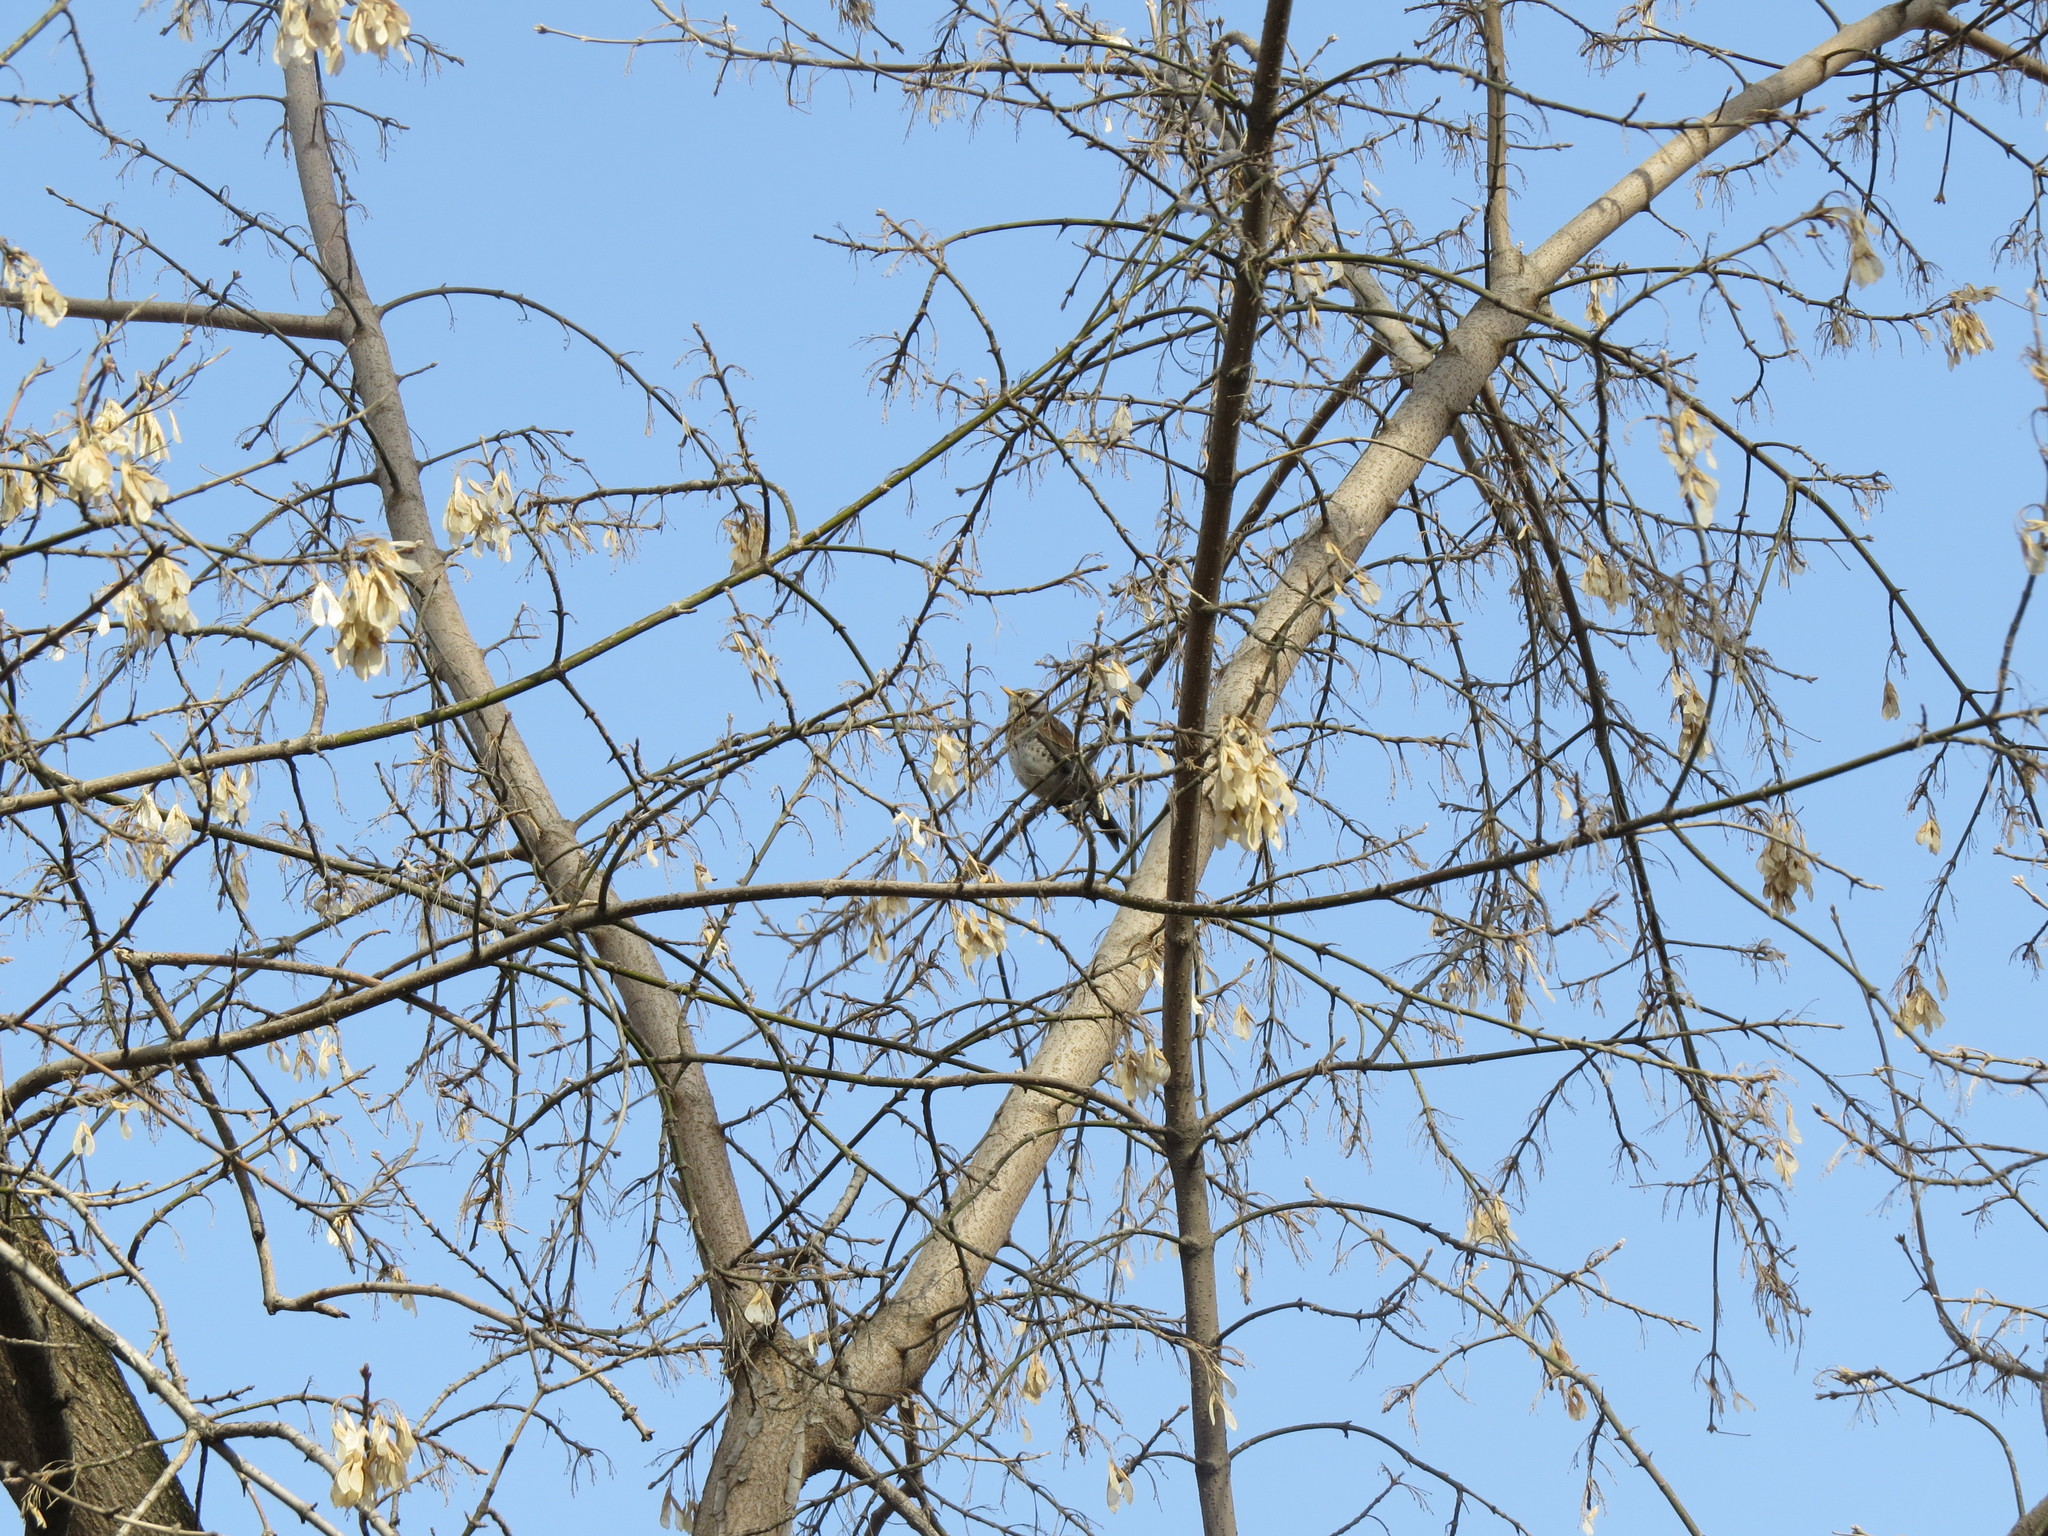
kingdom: Animalia
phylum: Chordata
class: Aves
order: Passeriformes
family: Turdidae
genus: Turdus
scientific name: Turdus pilaris
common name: Fieldfare
